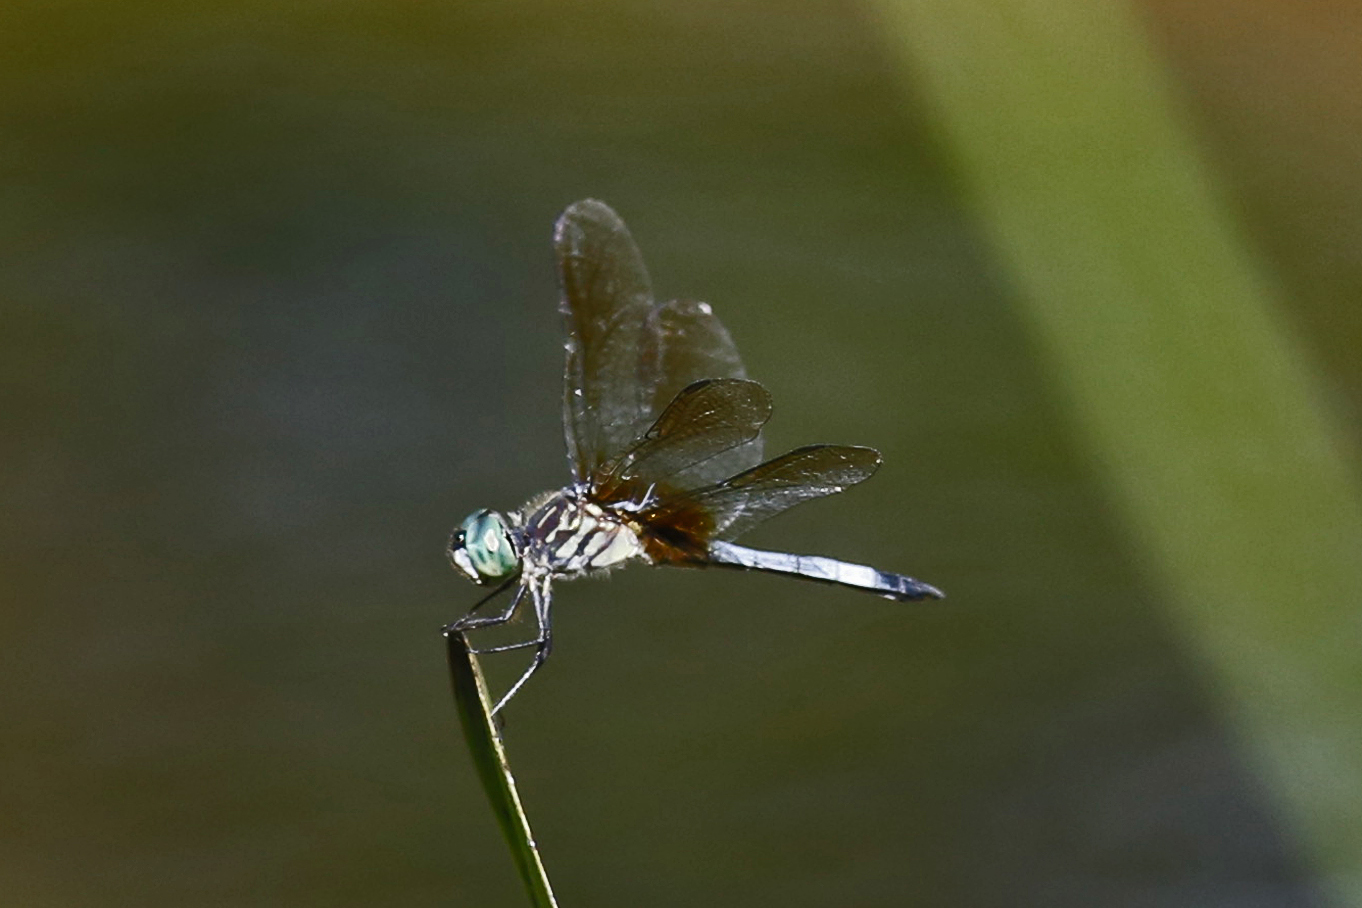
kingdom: Animalia
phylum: Arthropoda
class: Insecta
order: Odonata
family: Libellulidae
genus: Pachydiplax
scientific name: Pachydiplax longipennis
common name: Blue dasher
